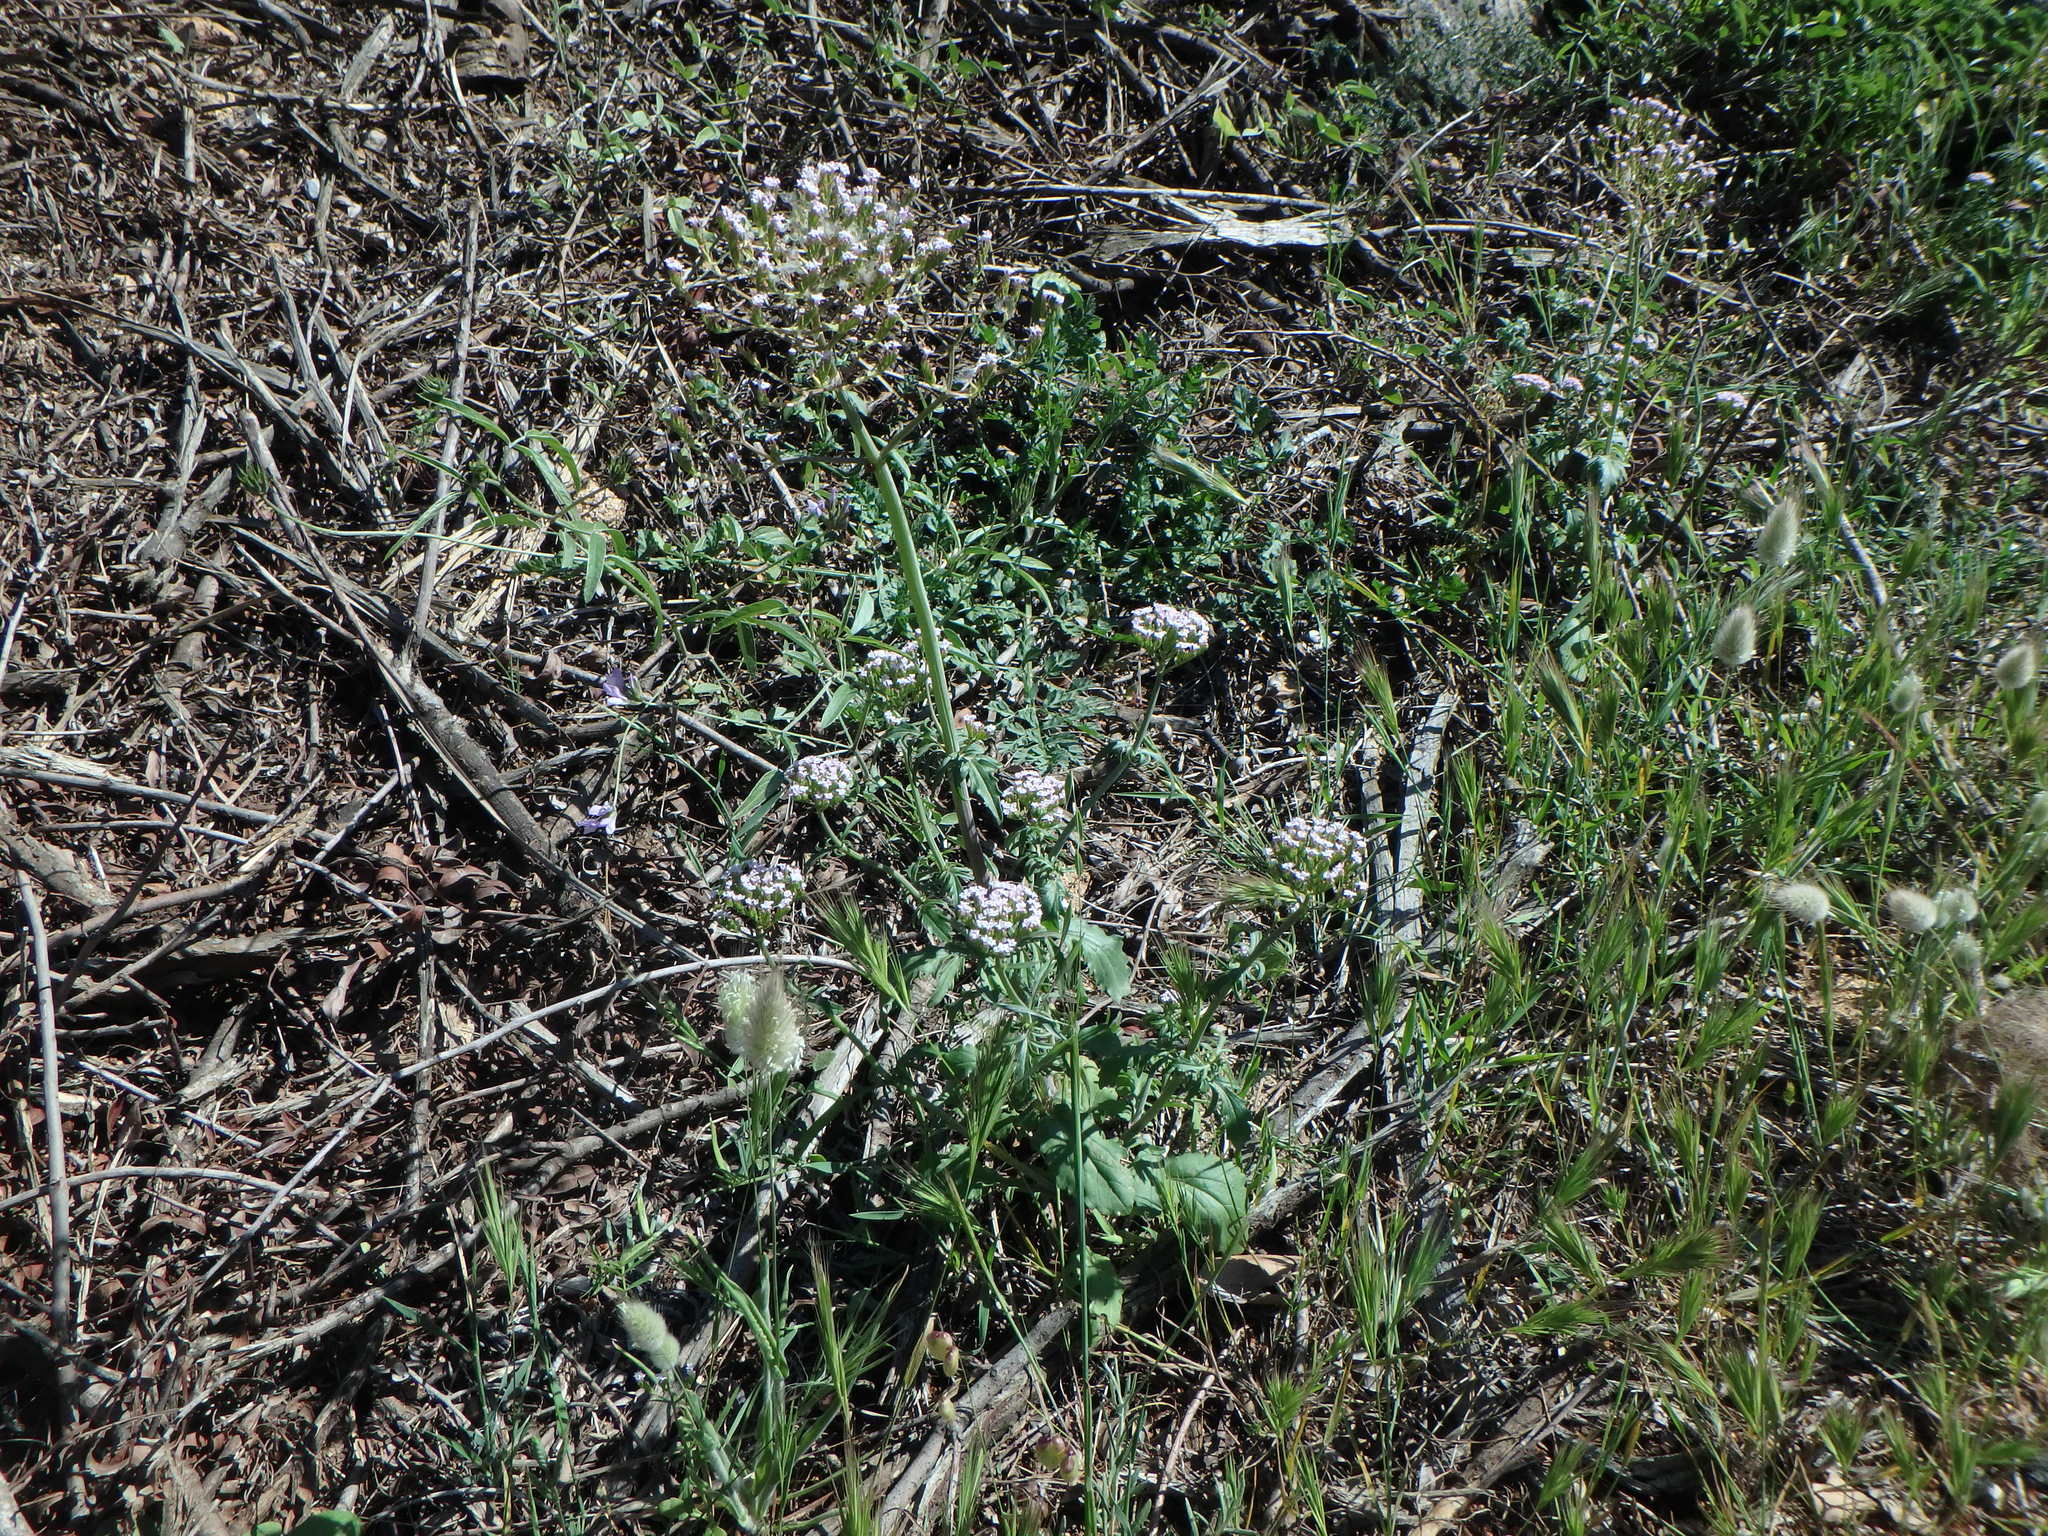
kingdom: Plantae
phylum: Tracheophyta
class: Magnoliopsida
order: Dipsacales
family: Caprifoliaceae
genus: Centranthus
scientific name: Centranthus calcitrapae
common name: Annual valerian
